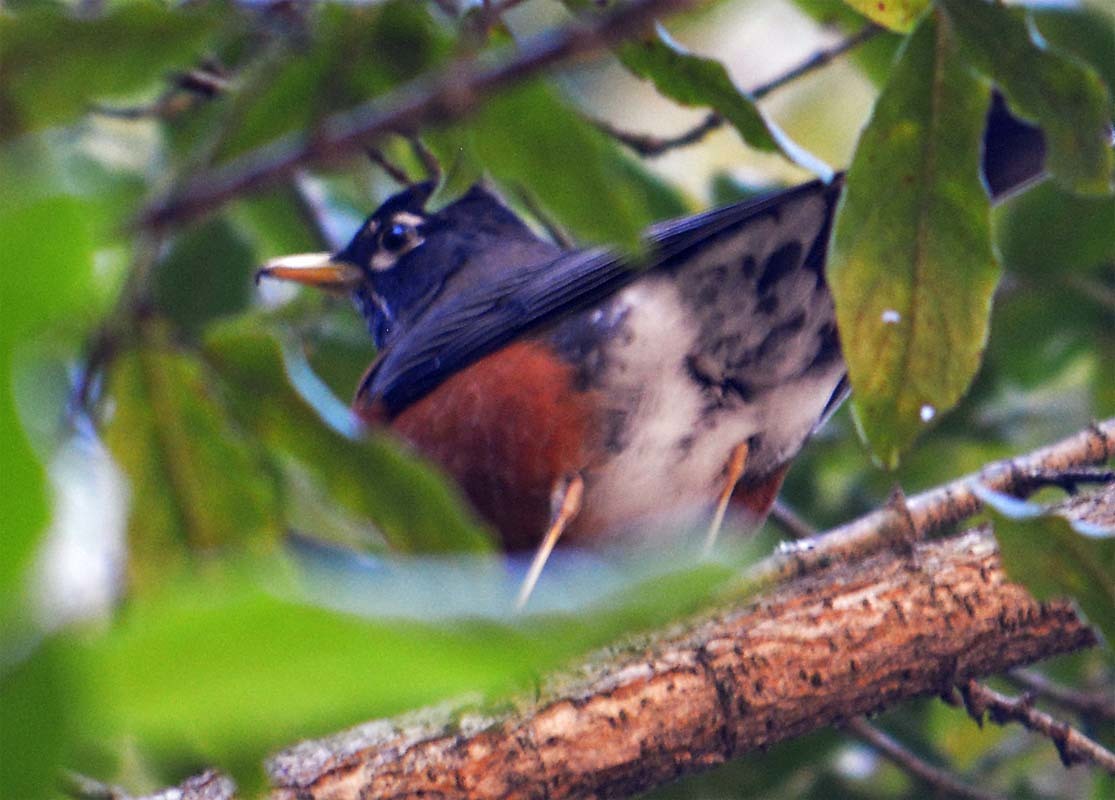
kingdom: Animalia
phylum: Chordata
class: Aves
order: Passeriformes
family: Turdidae
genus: Turdus
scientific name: Turdus migratorius
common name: American robin
